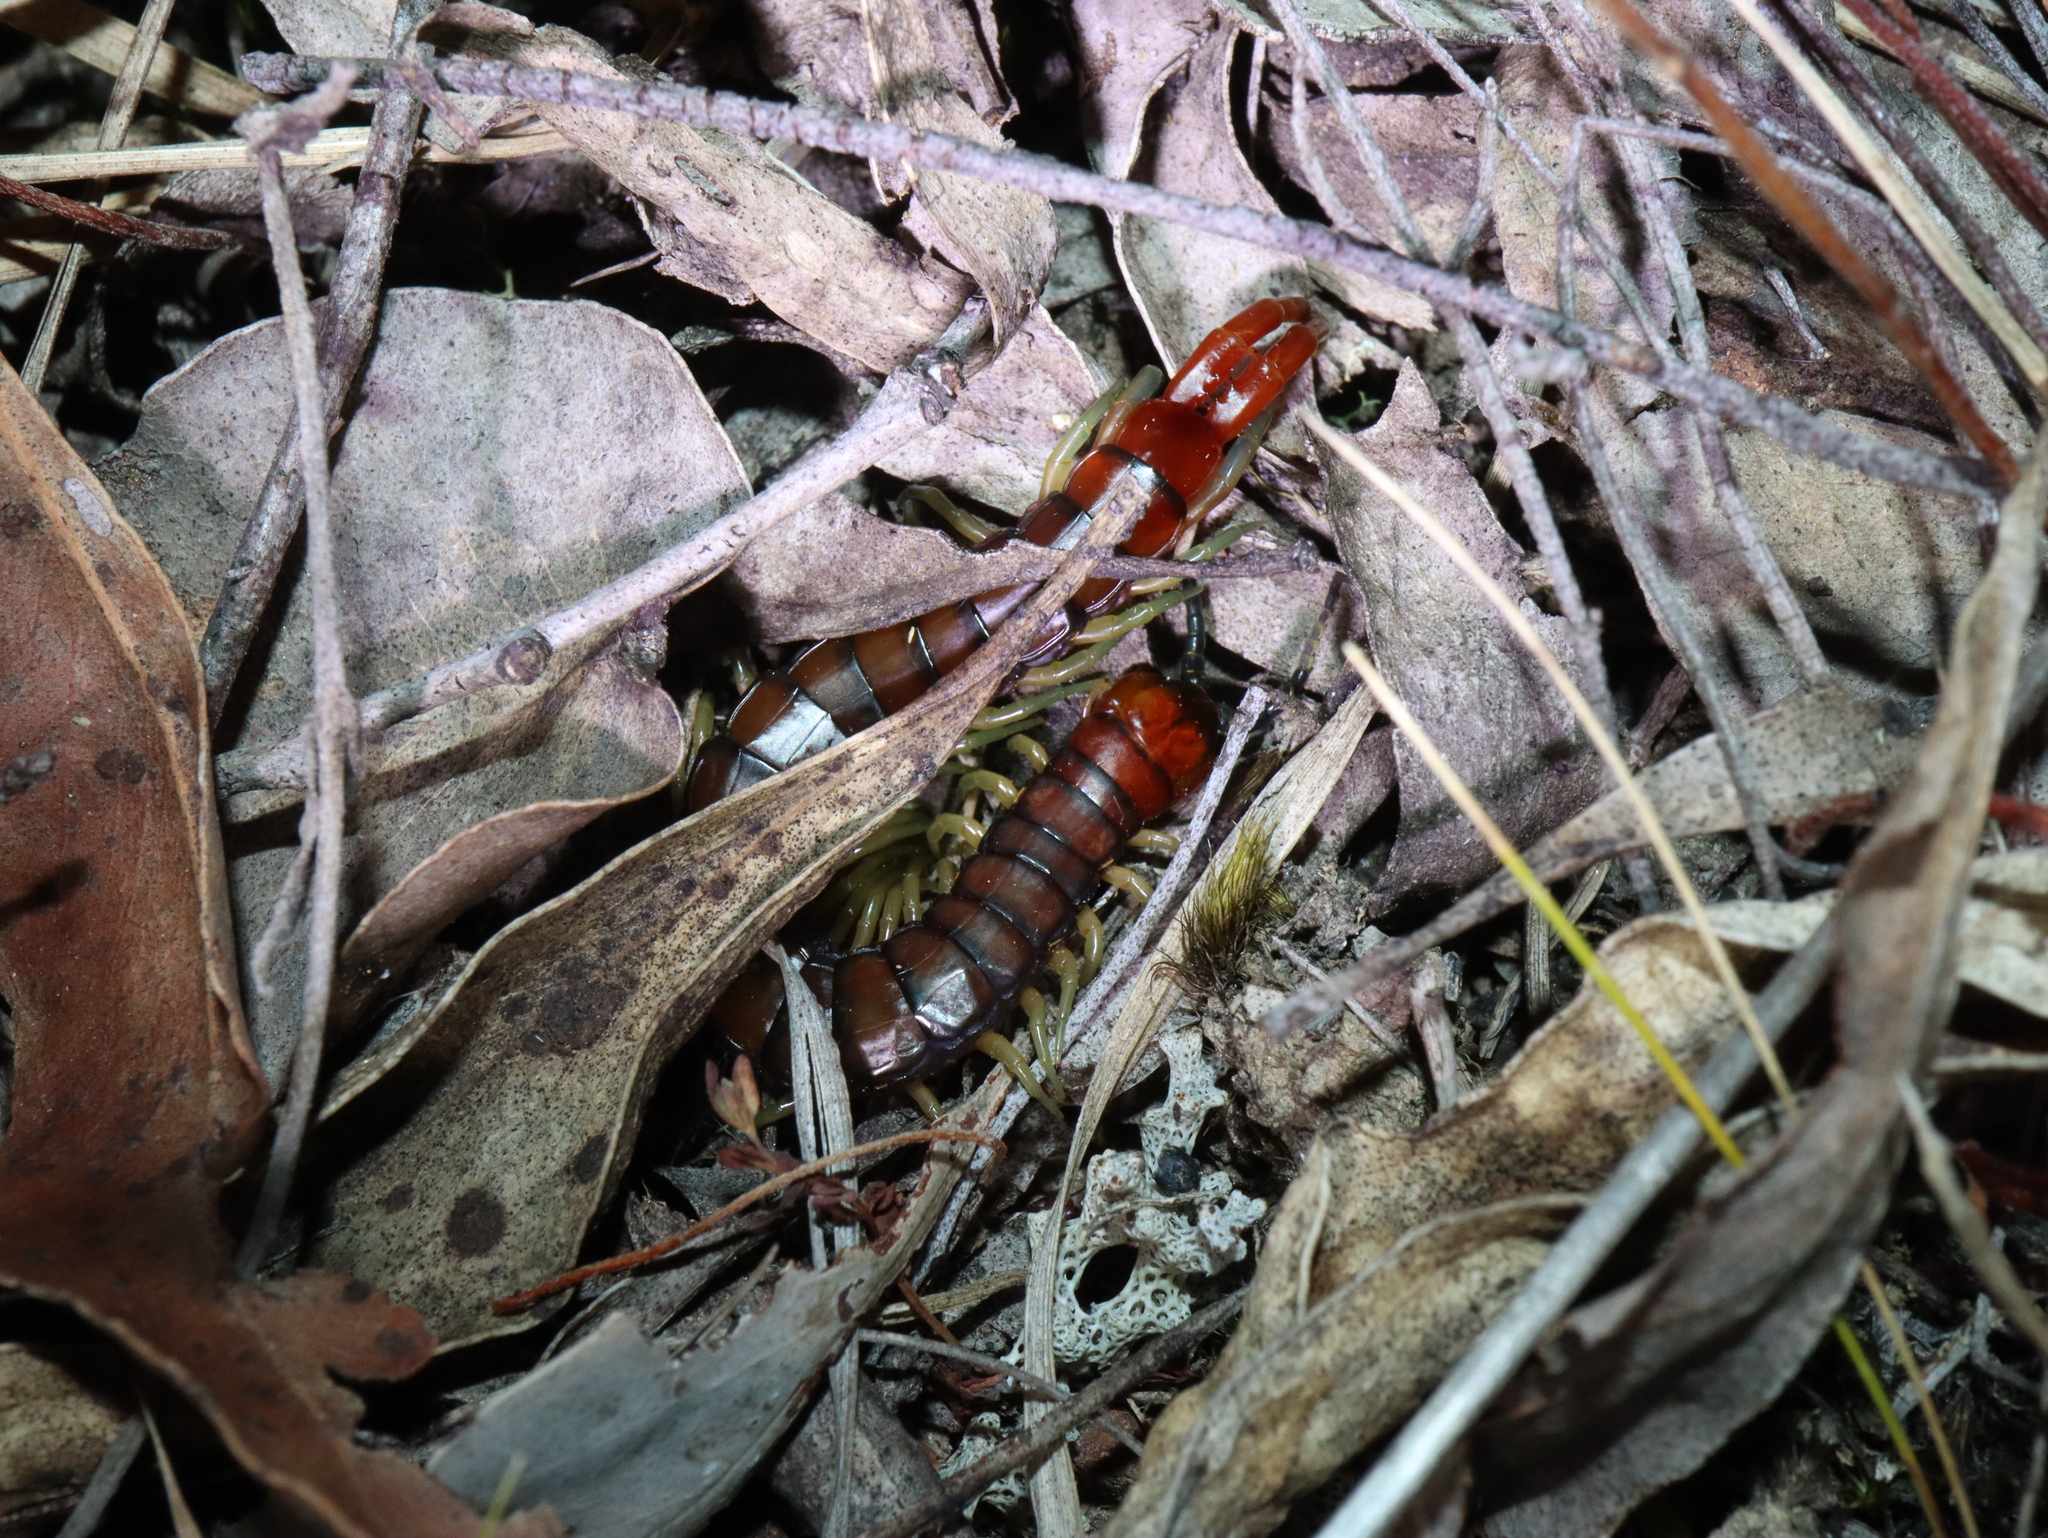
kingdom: Animalia
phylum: Arthropoda
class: Chilopoda
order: Scolopendromorpha
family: Scolopendridae
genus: Cormocephalus
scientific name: Cormocephalus aurantiipes
